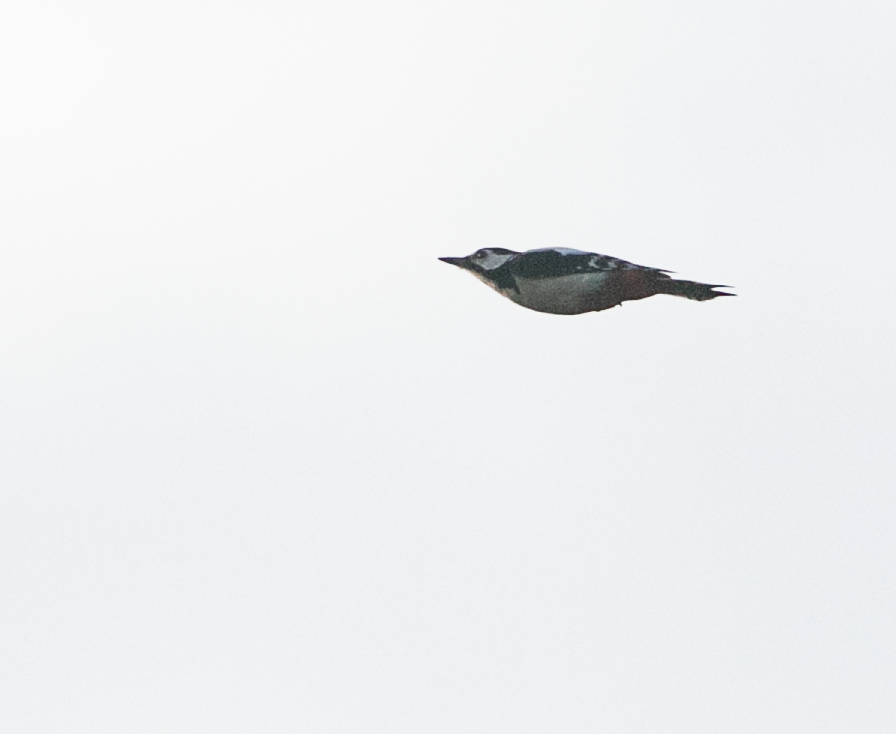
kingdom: Animalia
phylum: Chordata
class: Aves
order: Piciformes
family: Picidae
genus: Dendrocopos
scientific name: Dendrocopos major
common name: Great spotted woodpecker
